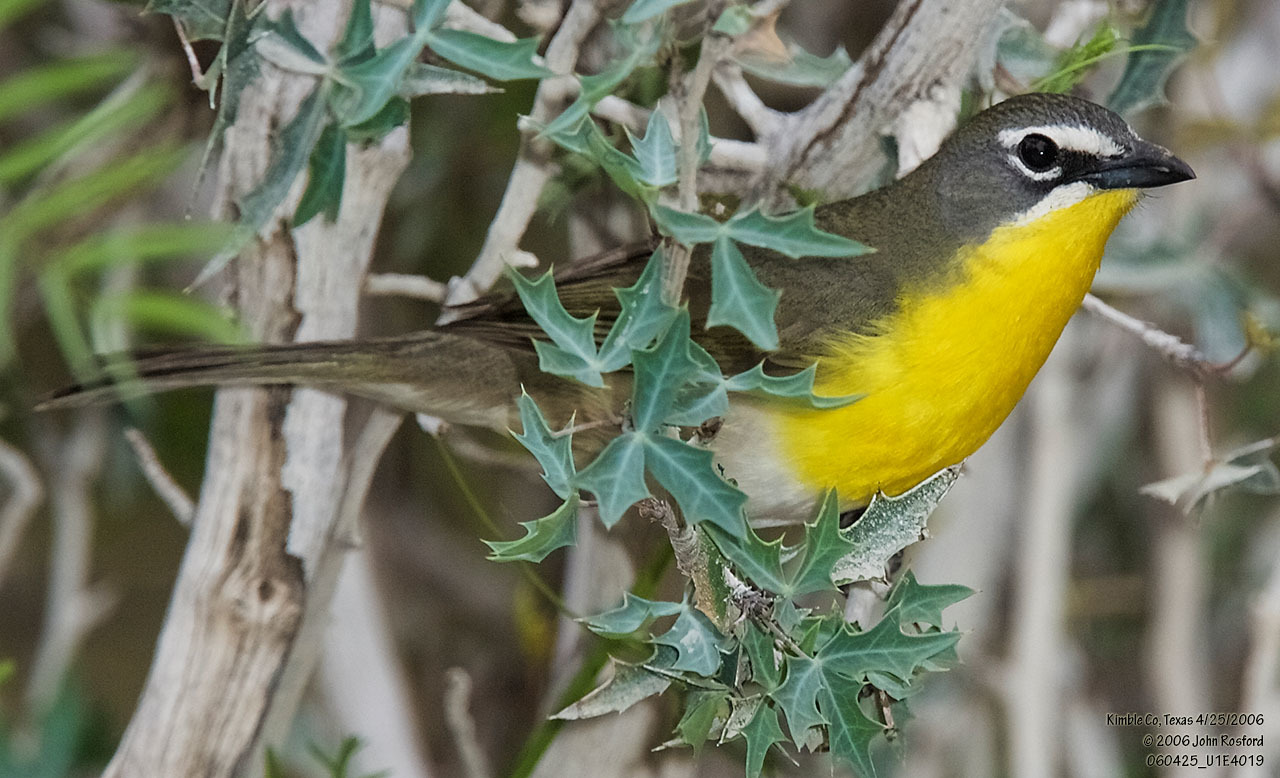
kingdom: Animalia
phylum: Chordata
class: Aves
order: Passeriformes
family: Parulidae
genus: Icteria
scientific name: Icteria virens
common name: Yellow-breasted chat
